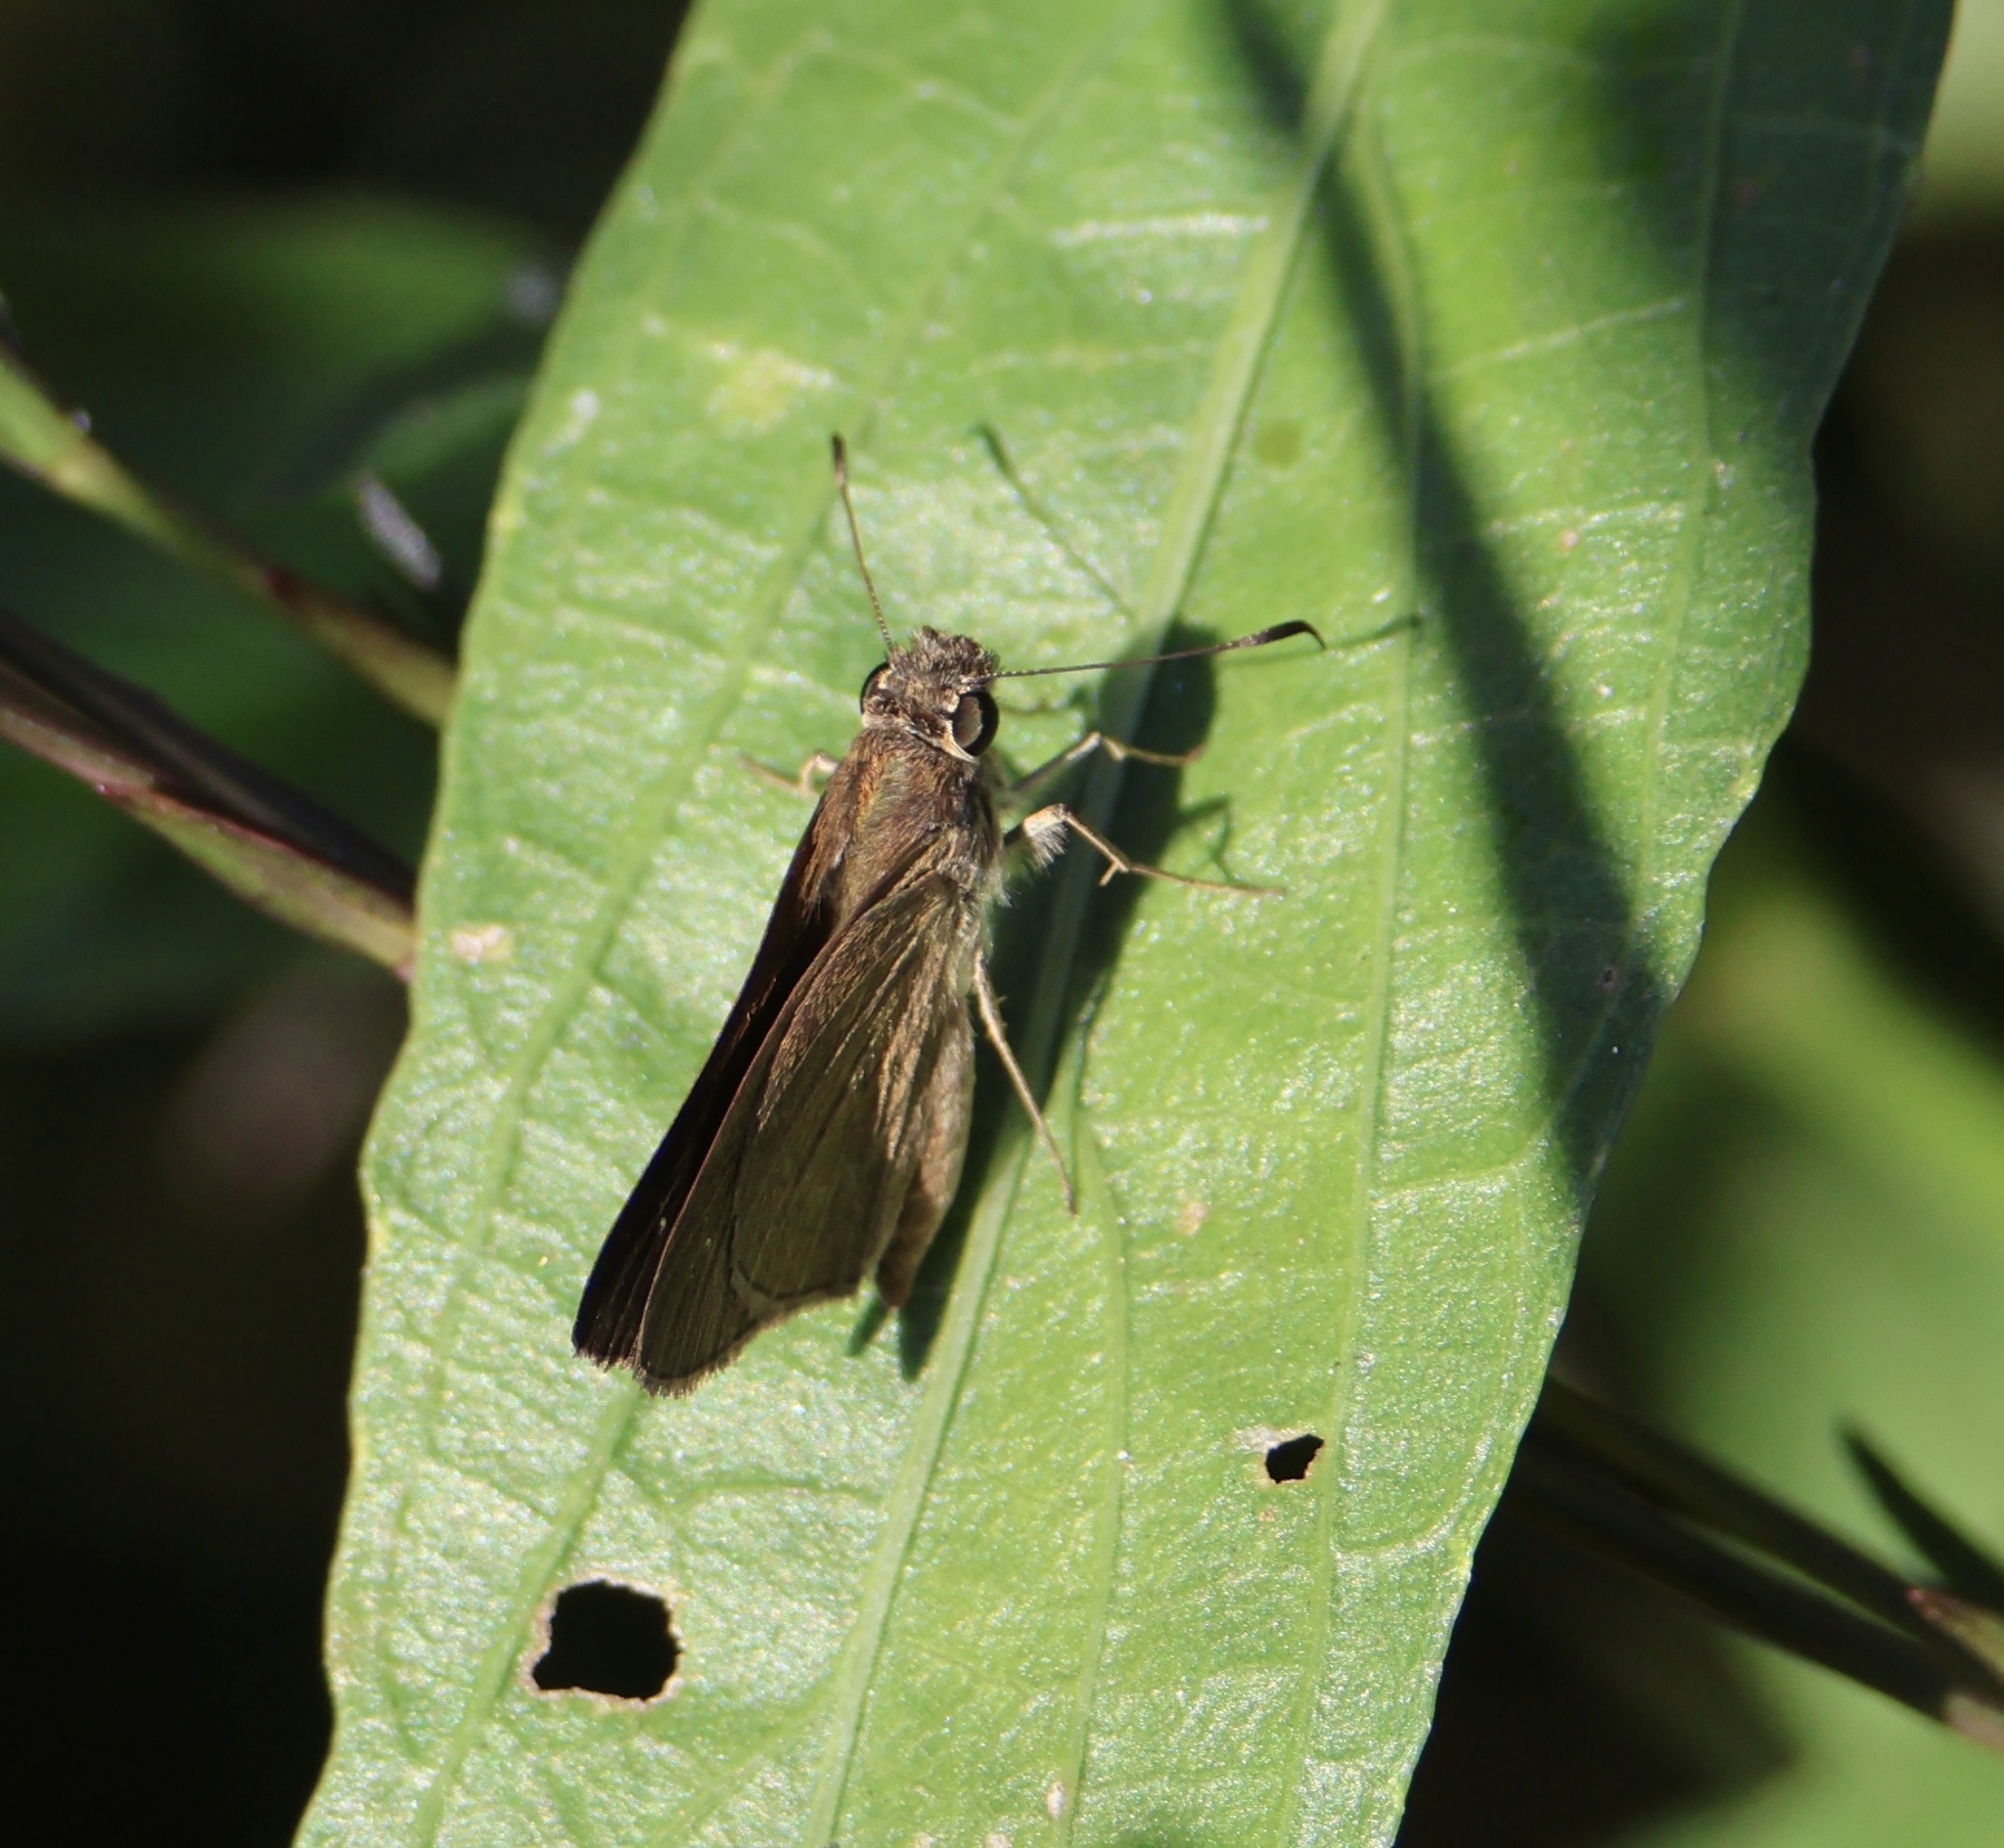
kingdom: Animalia
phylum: Arthropoda
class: Insecta
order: Lepidoptera
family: Hesperiidae
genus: Cymaenes
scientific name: Cymaenes tripunctus
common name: Dingy dotted skipper
